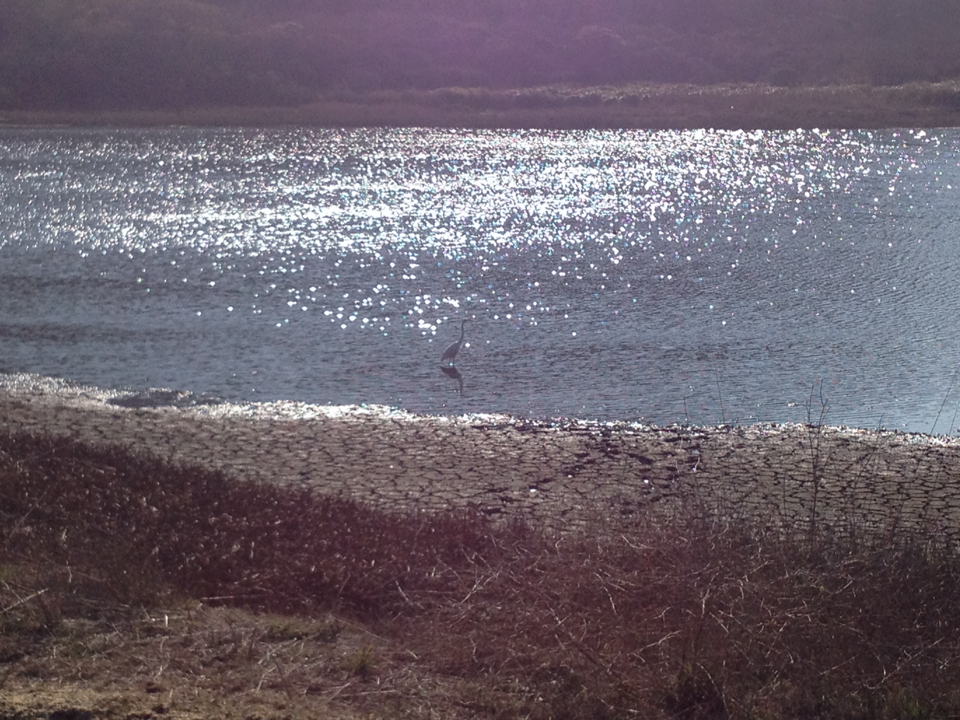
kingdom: Animalia
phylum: Chordata
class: Aves
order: Pelecaniformes
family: Ardeidae
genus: Ardea
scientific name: Ardea alba
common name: Great egret
